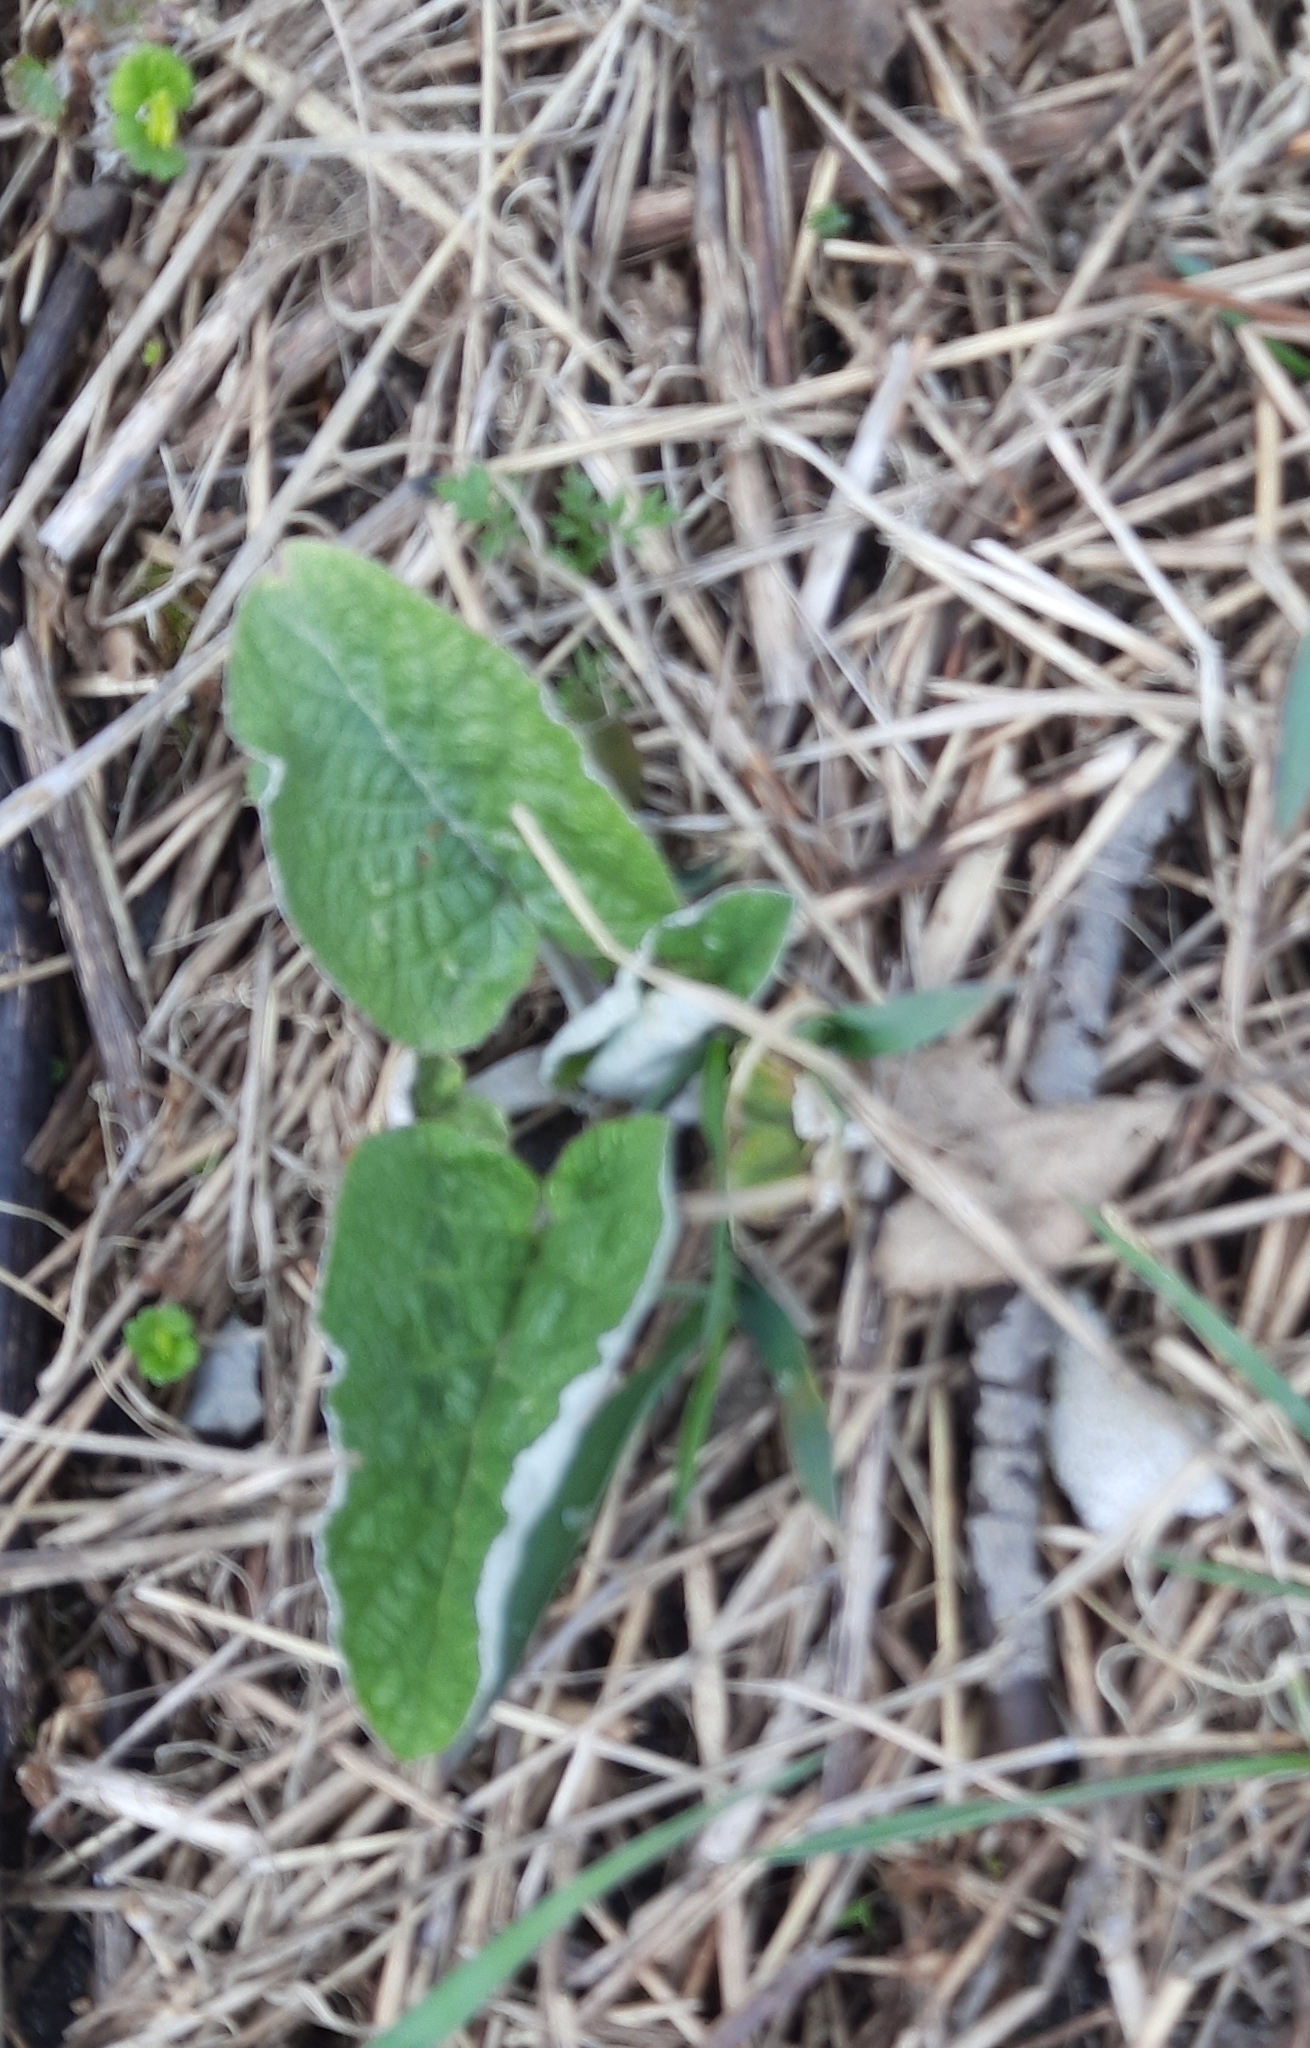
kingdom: Plantae
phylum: Tracheophyta
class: Magnoliopsida
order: Asterales
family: Asteraceae
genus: Arctium
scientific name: Arctium tomentosum
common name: Woolly burdock
